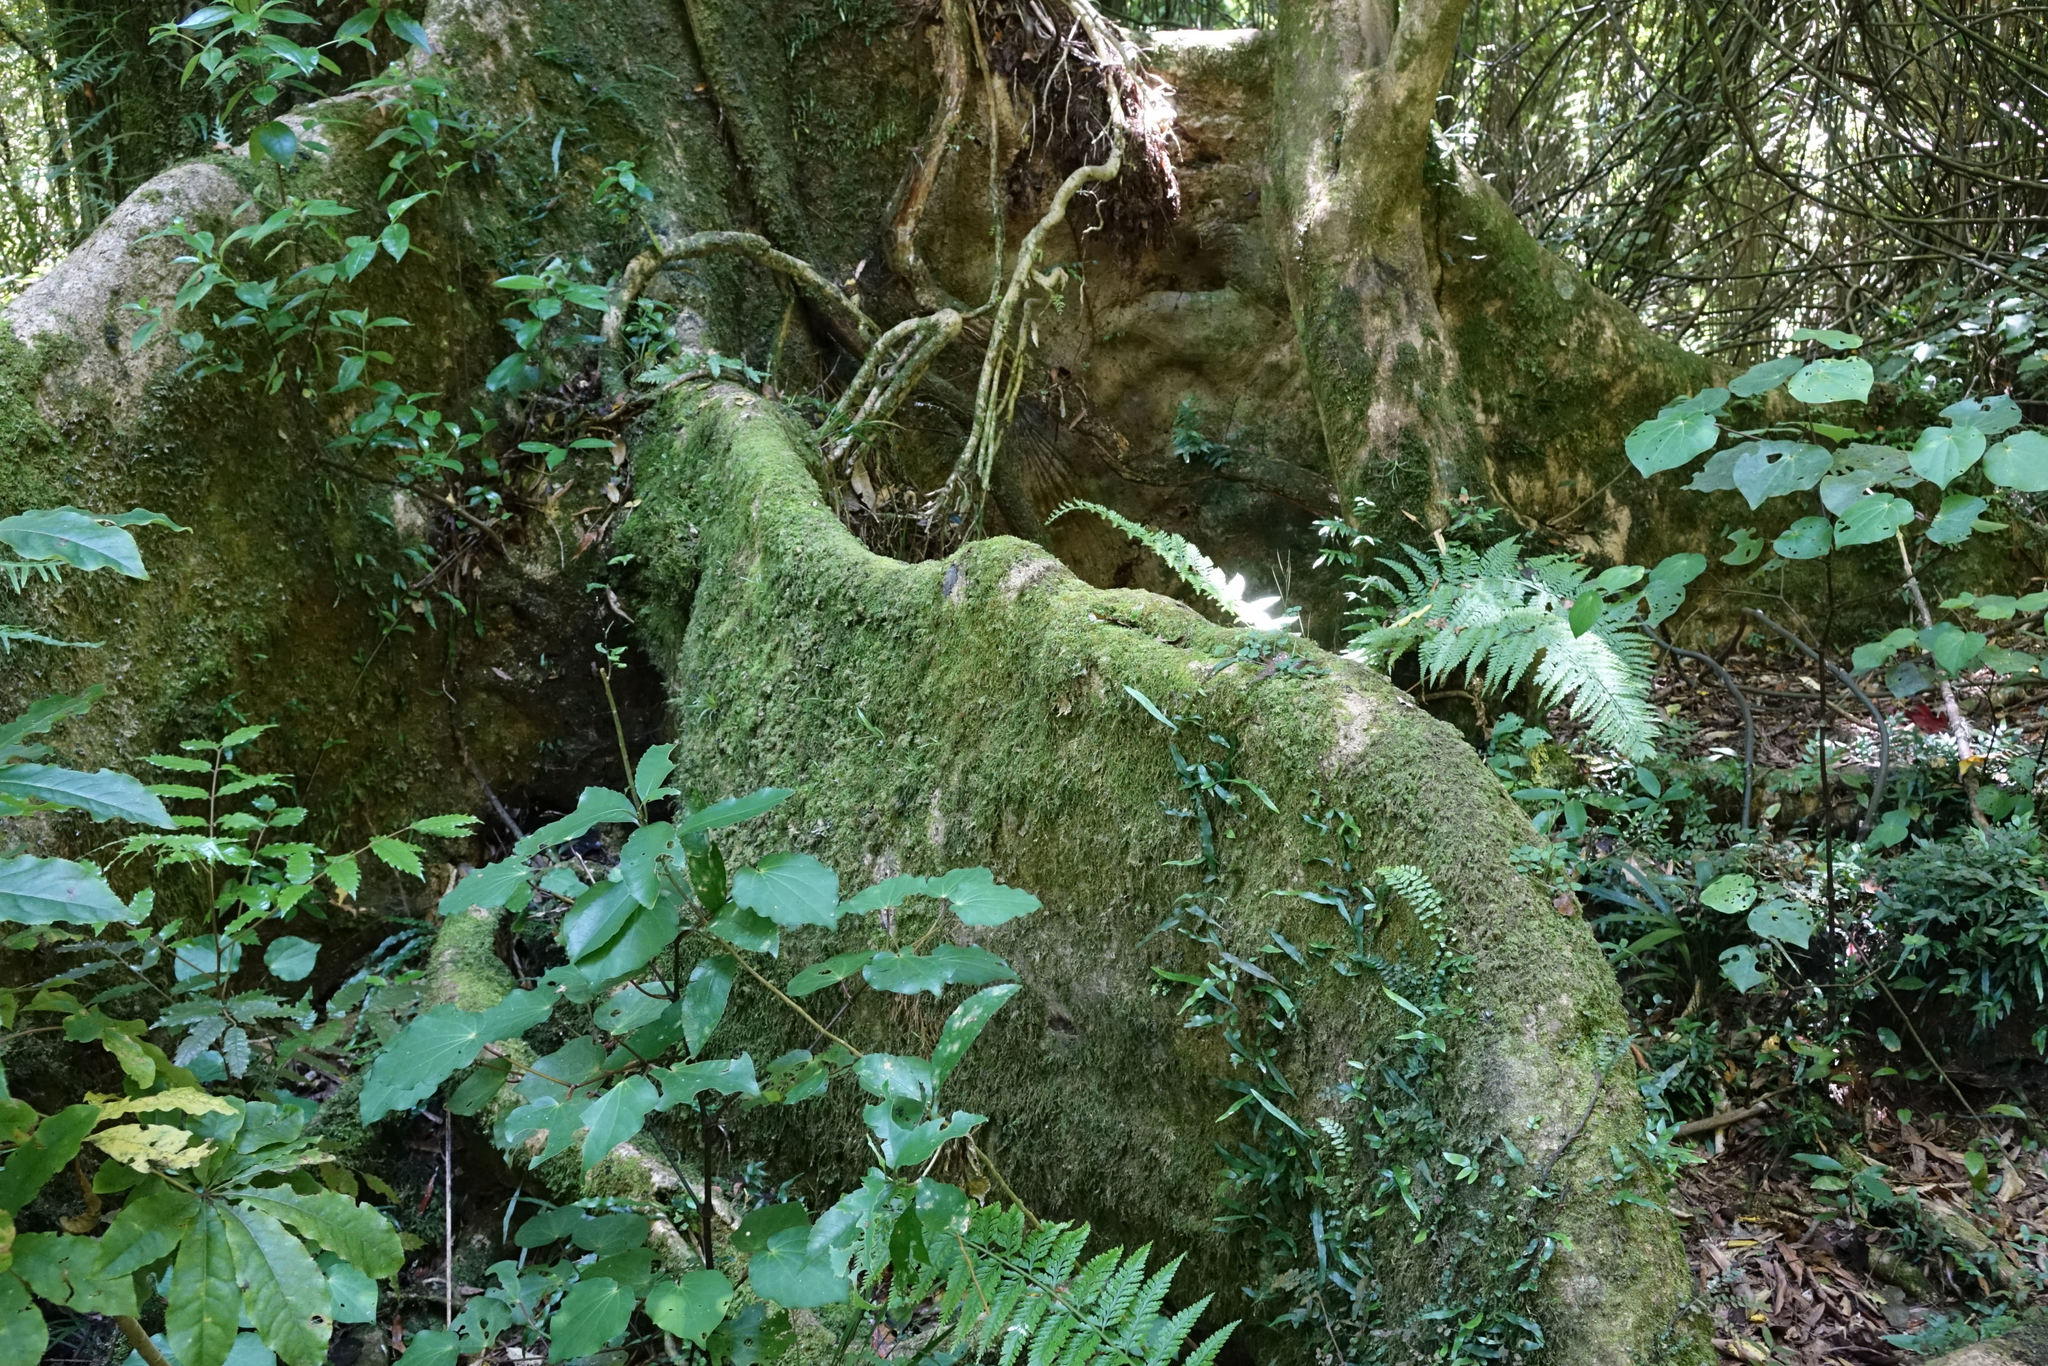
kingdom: Plantae
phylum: Tracheophyta
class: Magnoliopsida
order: Laurales
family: Atherospermataceae
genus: Laurelia
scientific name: Laurelia novae-zelandiae
